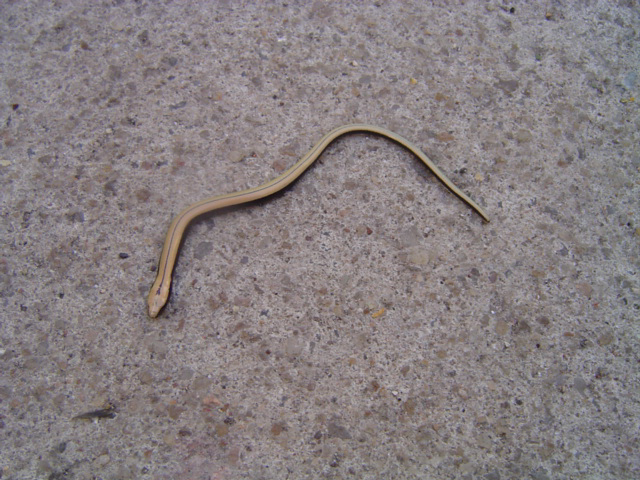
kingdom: Animalia
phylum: Chordata
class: Squamata
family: Anguidae
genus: Anguis
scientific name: Anguis fragilis
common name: Slow worm
